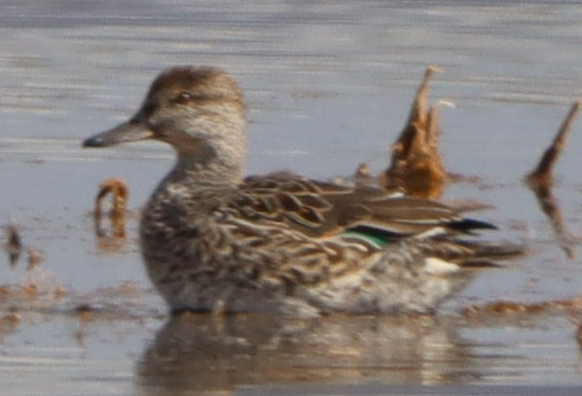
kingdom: Animalia
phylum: Chordata
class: Aves
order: Anseriformes
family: Anatidae
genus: Anas
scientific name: Anas crecca
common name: Eurasian teal
